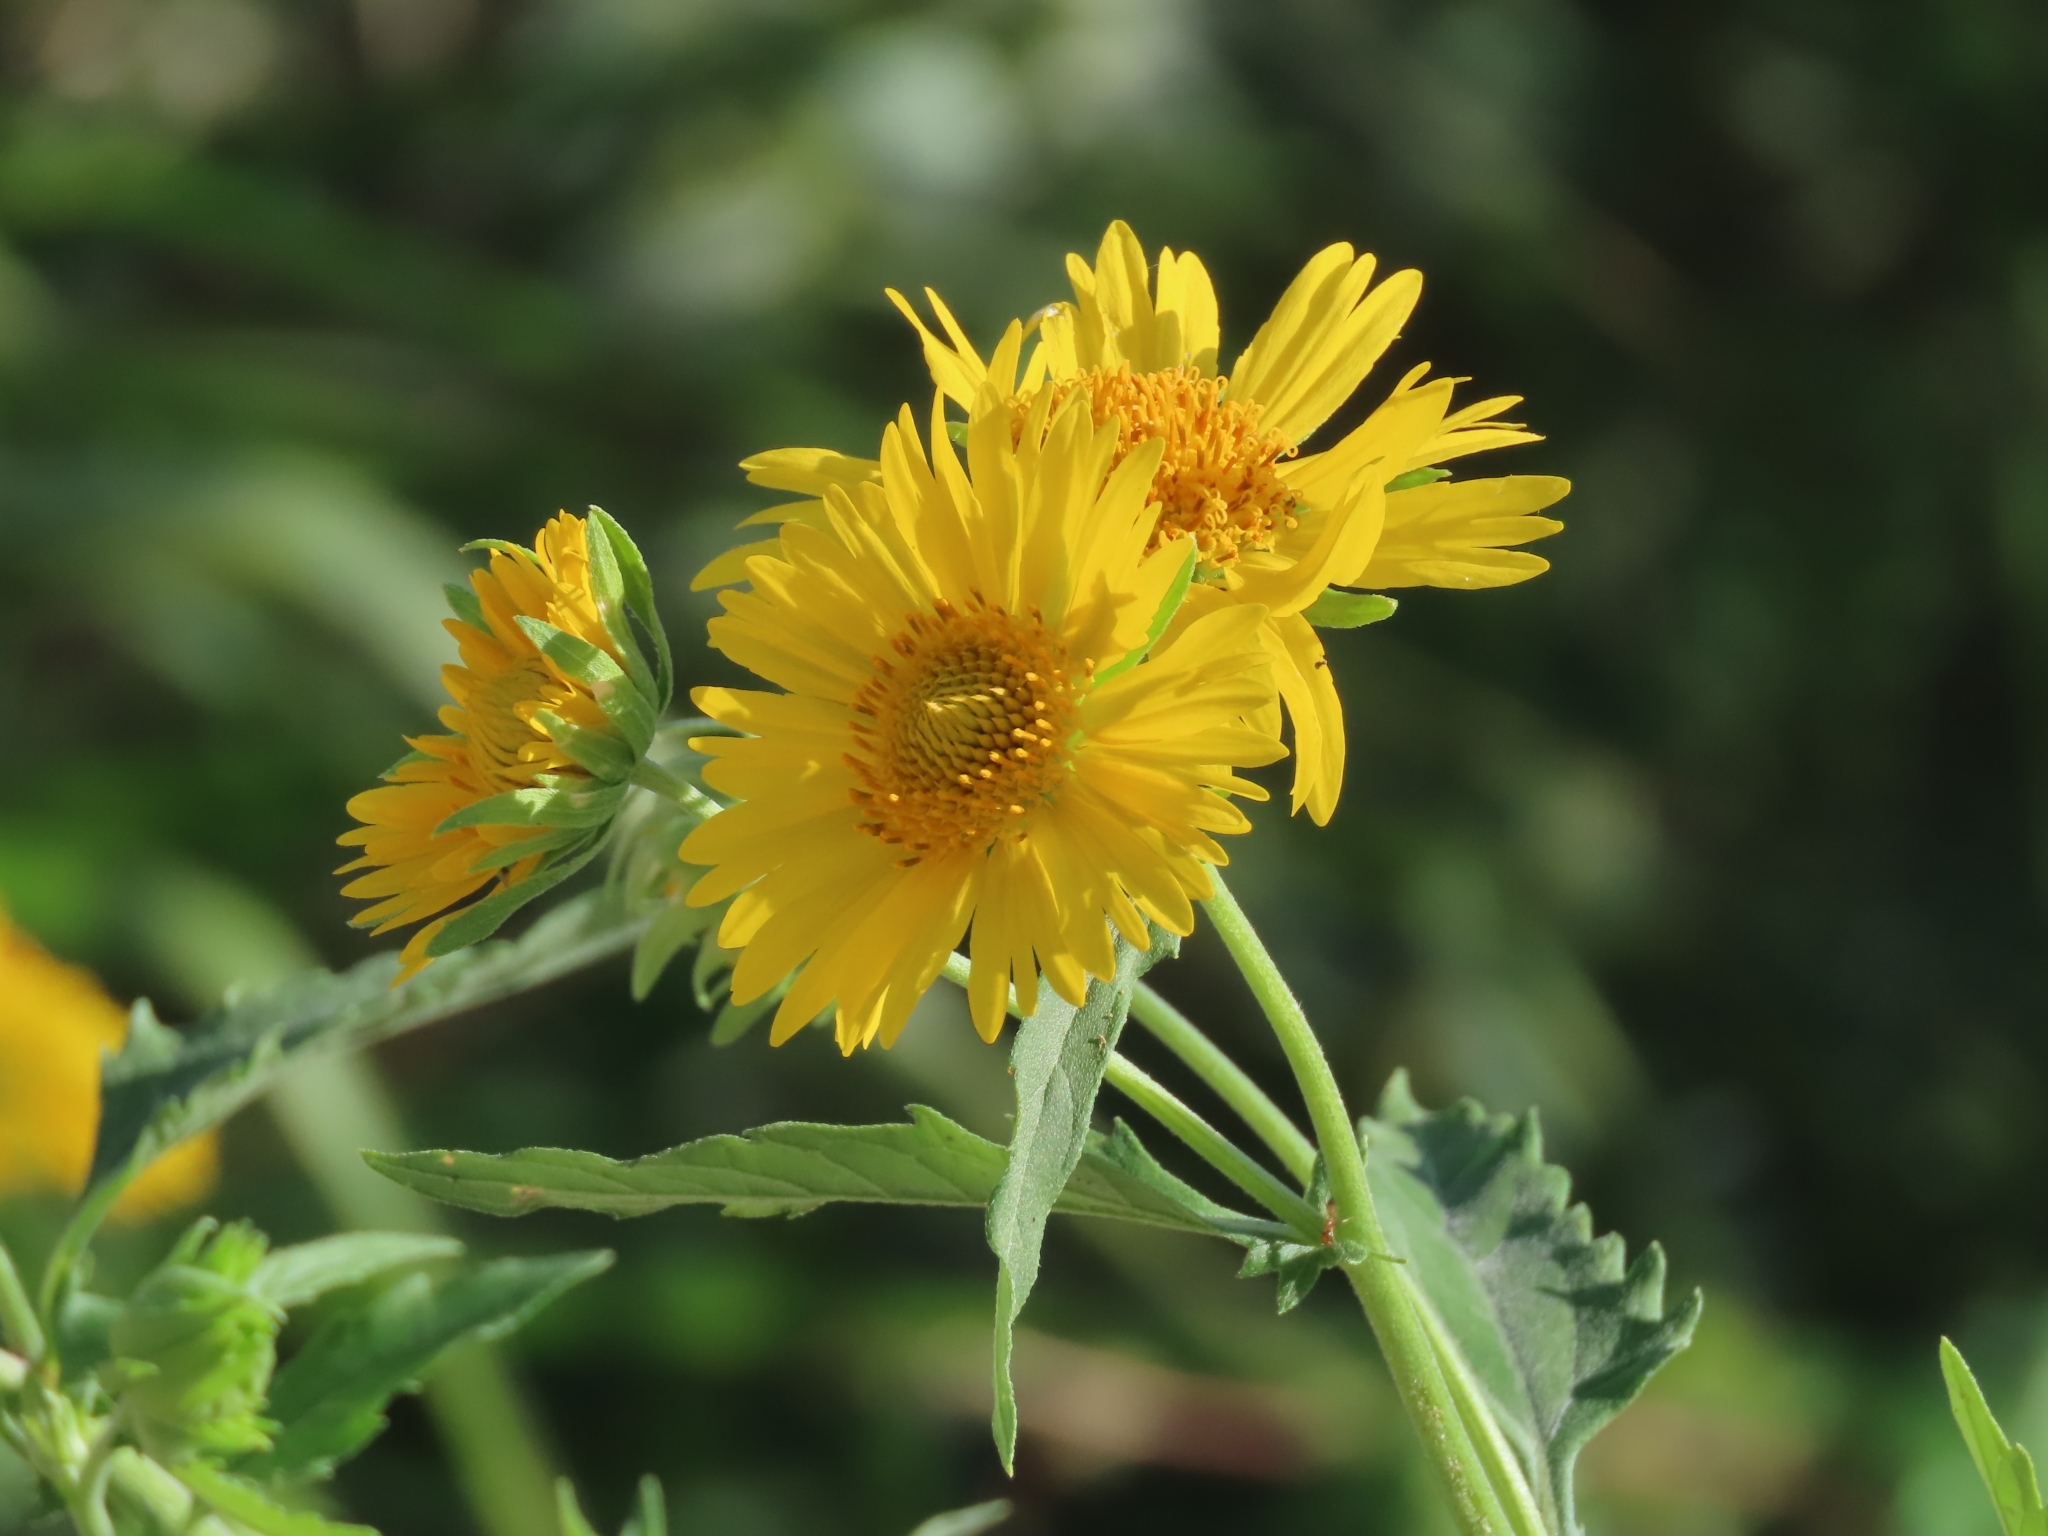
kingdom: Plantae
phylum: Tracheophyta
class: Magnoliopsida
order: Asterales
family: Asteraceae
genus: Verbesina
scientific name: Verbesina encelioides
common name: Golden crownbeard
